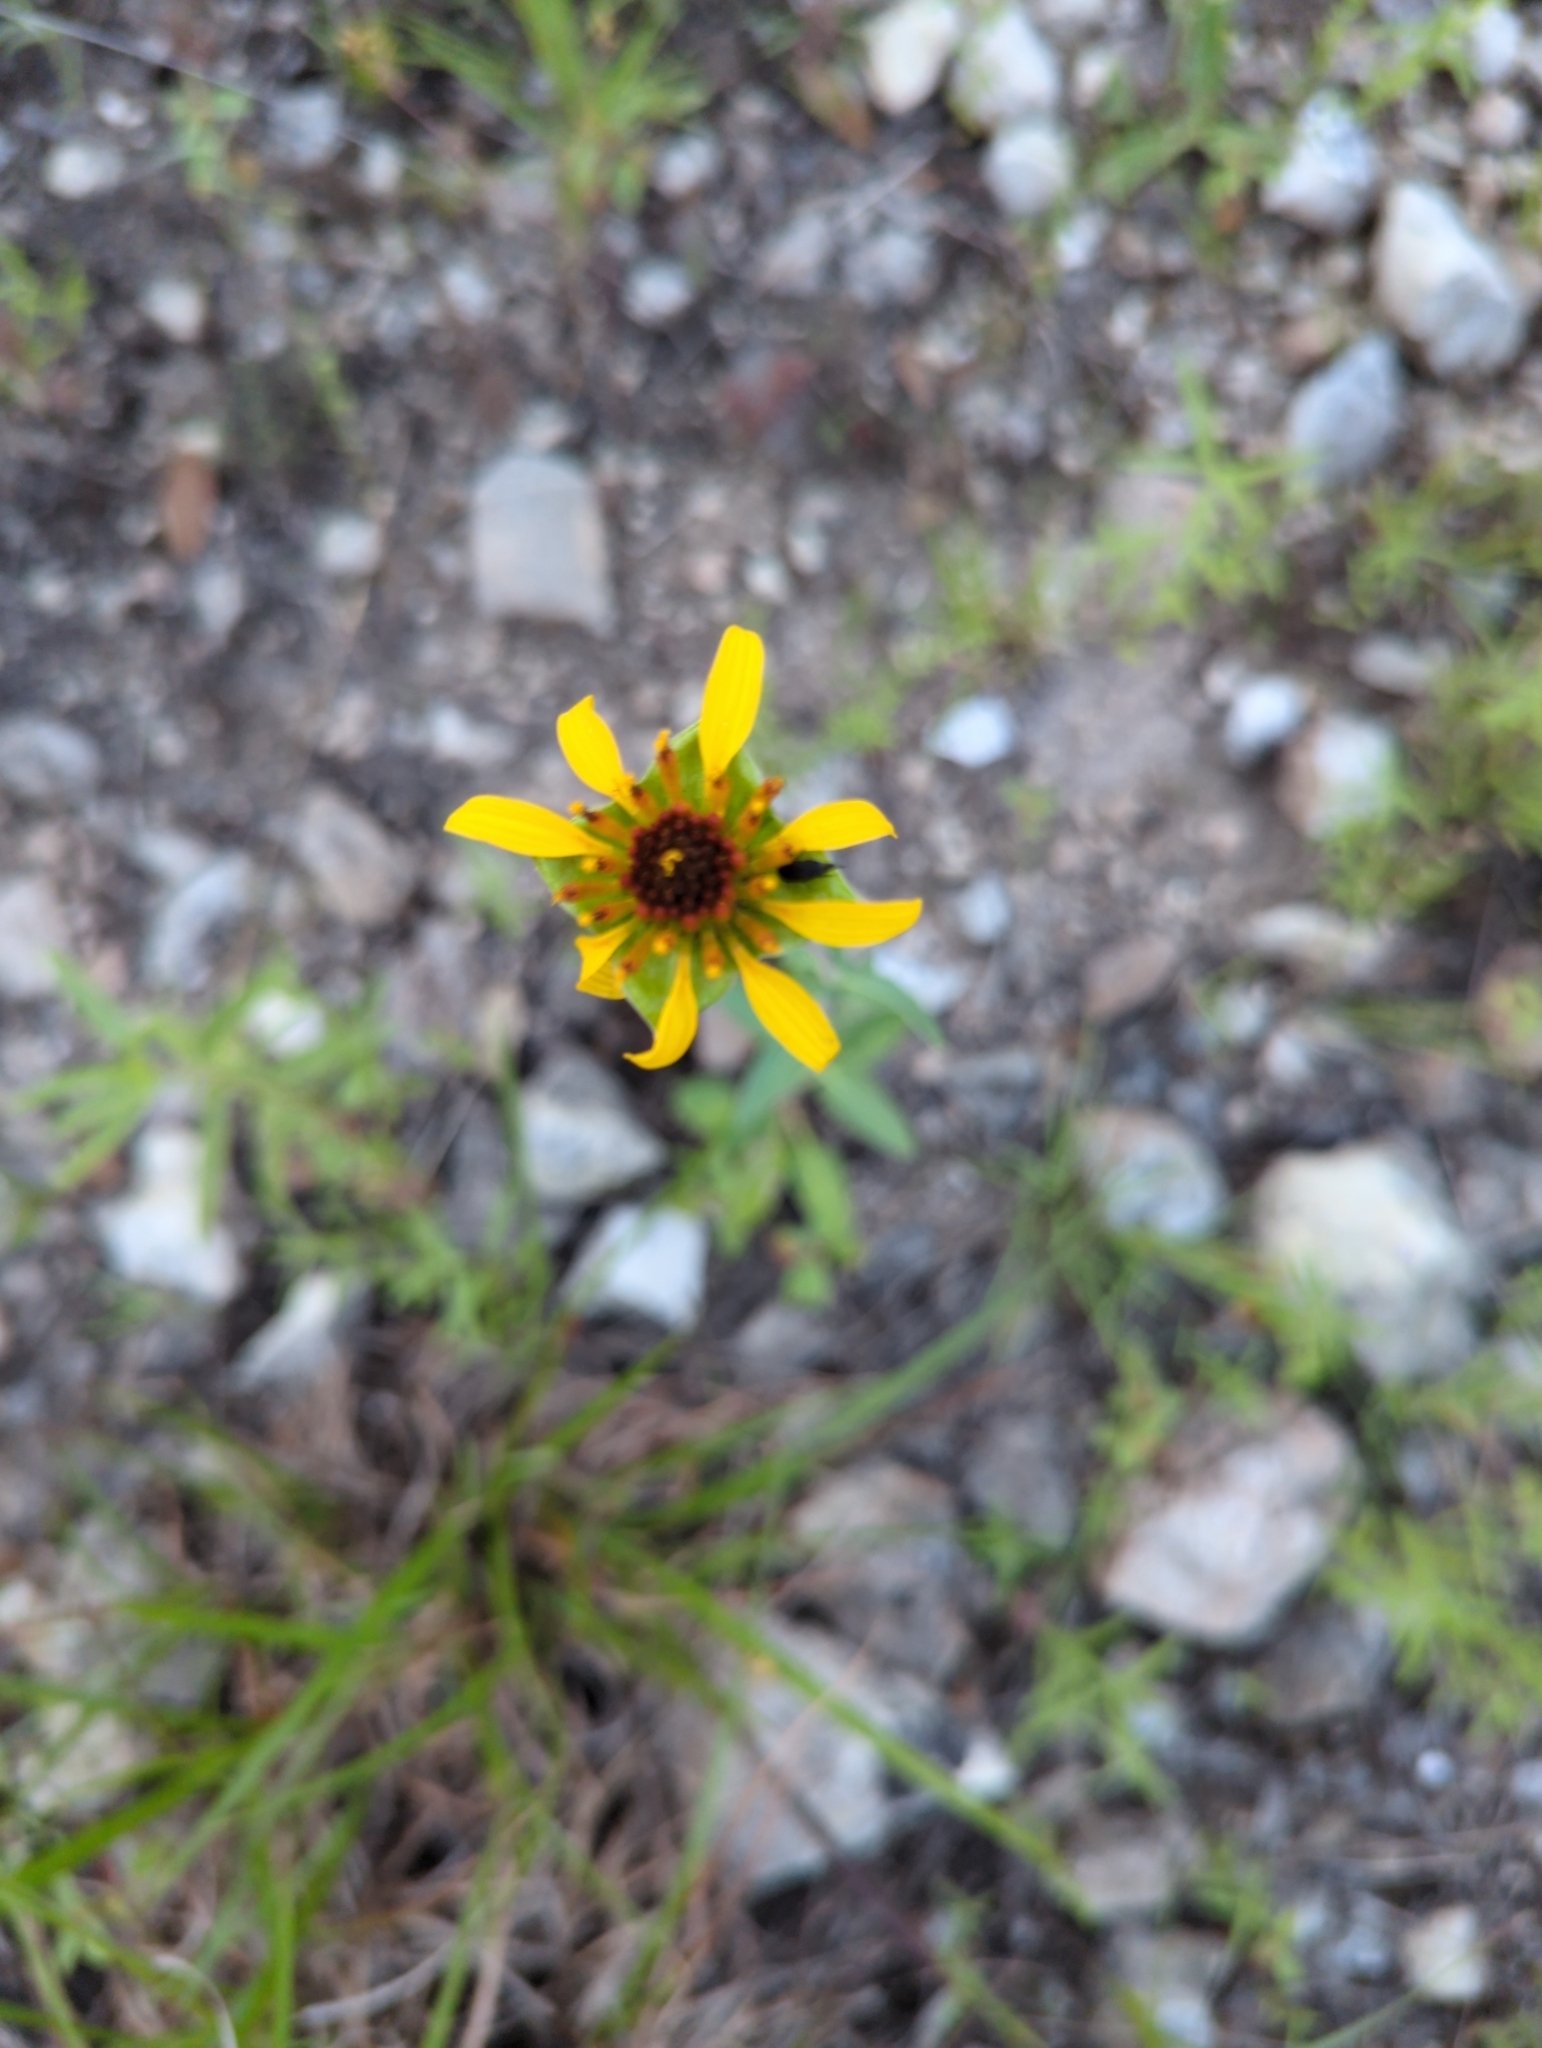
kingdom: Plantae
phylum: Tracheophyta
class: Magnoliopsida
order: Asterales
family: Asteraceae
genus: Tetragonotheca
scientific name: Tetragonotheca texana
